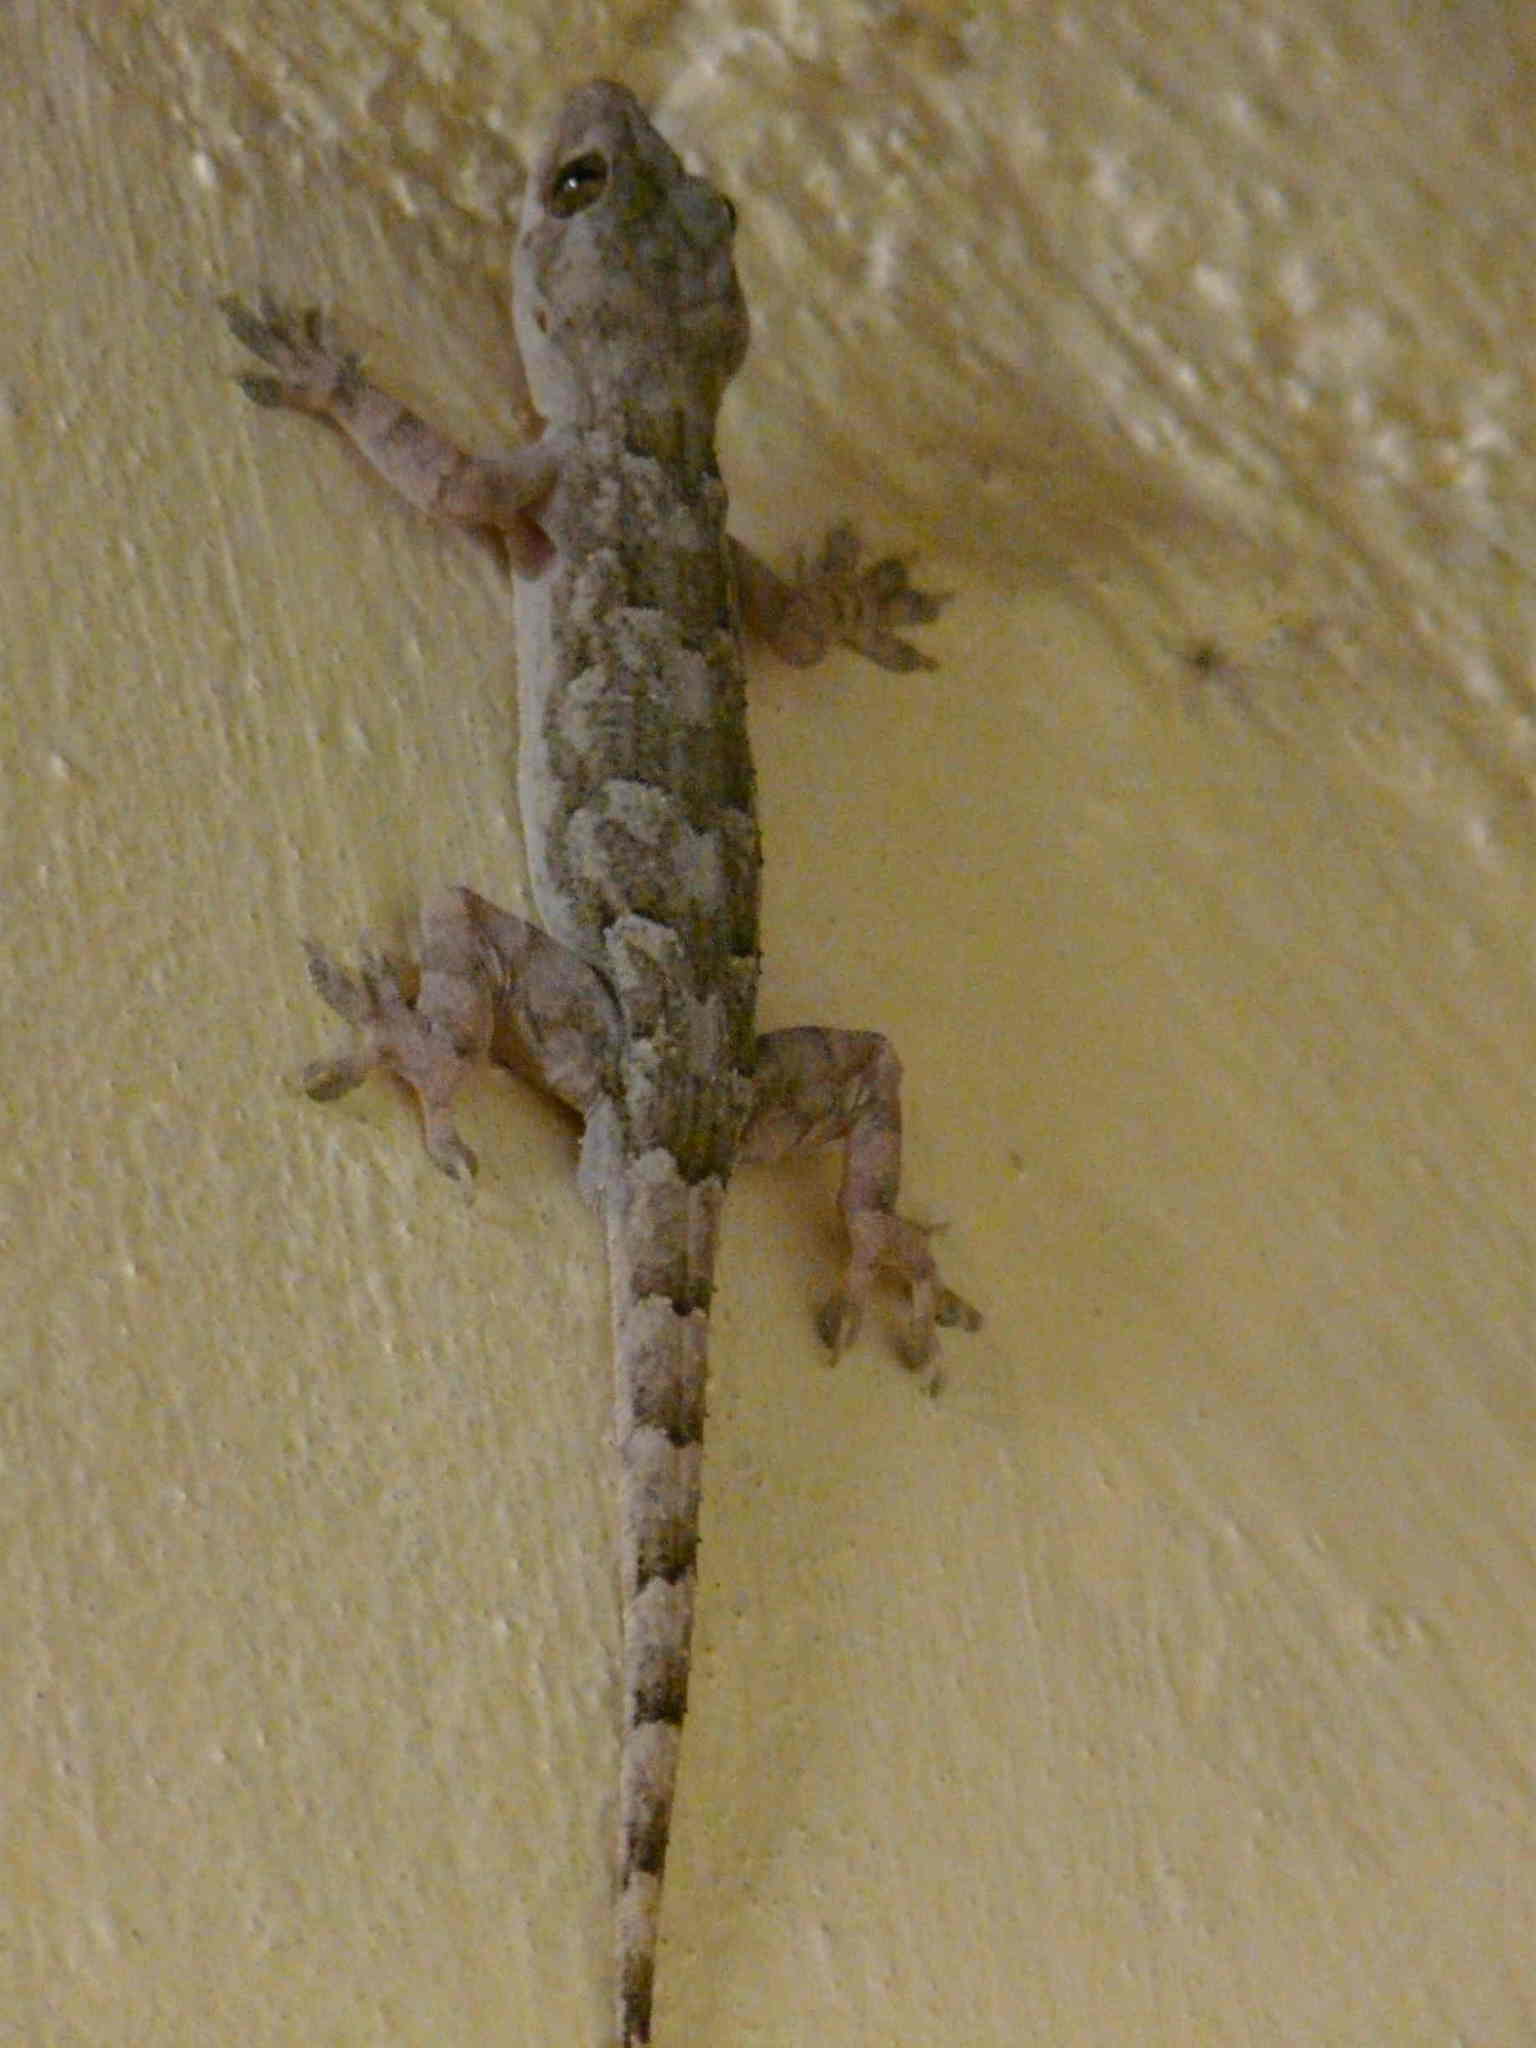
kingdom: Animalia
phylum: Chordata
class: Squamata
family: Gekkonidae
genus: Hemidactylus
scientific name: Hemidactylus platycephalus
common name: Baobab gecko
